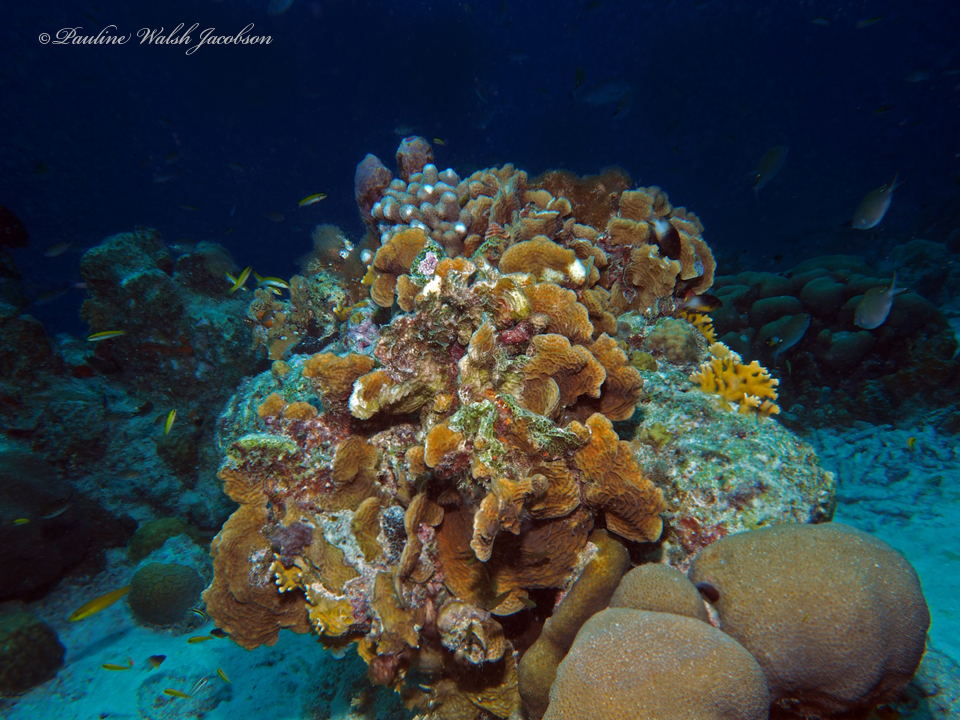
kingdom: Animalia
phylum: Cnidaria
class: Anthozoa
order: Scleractinia
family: Agariciidae
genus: Agaricia
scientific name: Agaricia agaricites
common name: Lettuce coral
